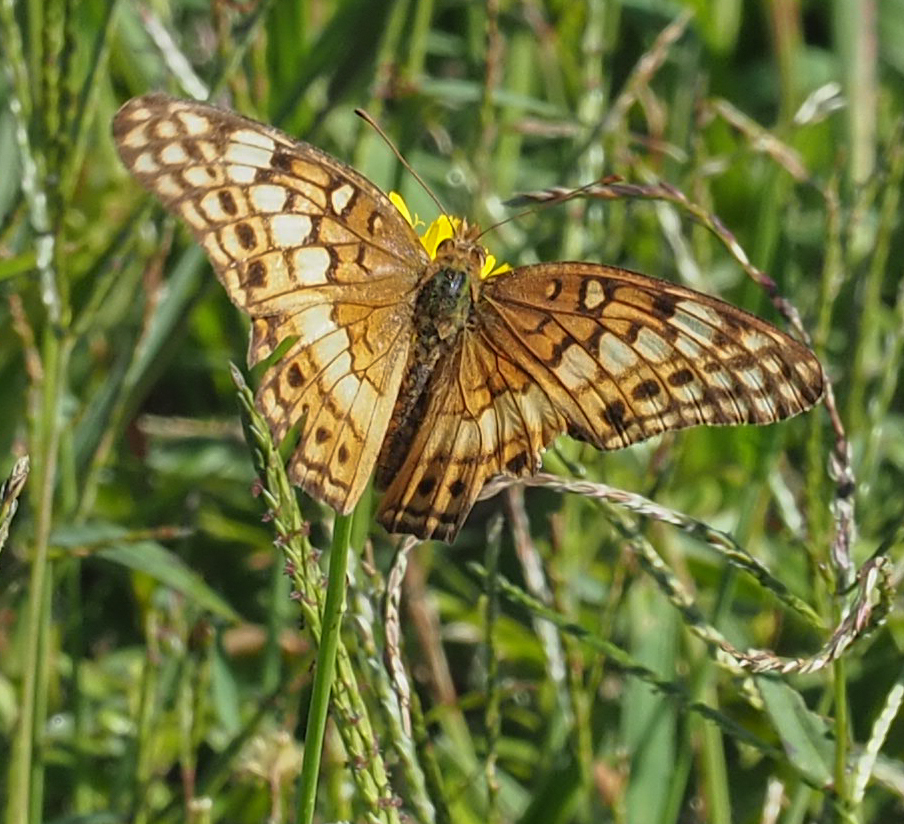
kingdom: Animalia
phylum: Arthropoda
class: Insecta
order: Lepidoptera
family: Nymphalidae
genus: Euptoieta
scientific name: Euptoieta claudia
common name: Variegated fritillary
